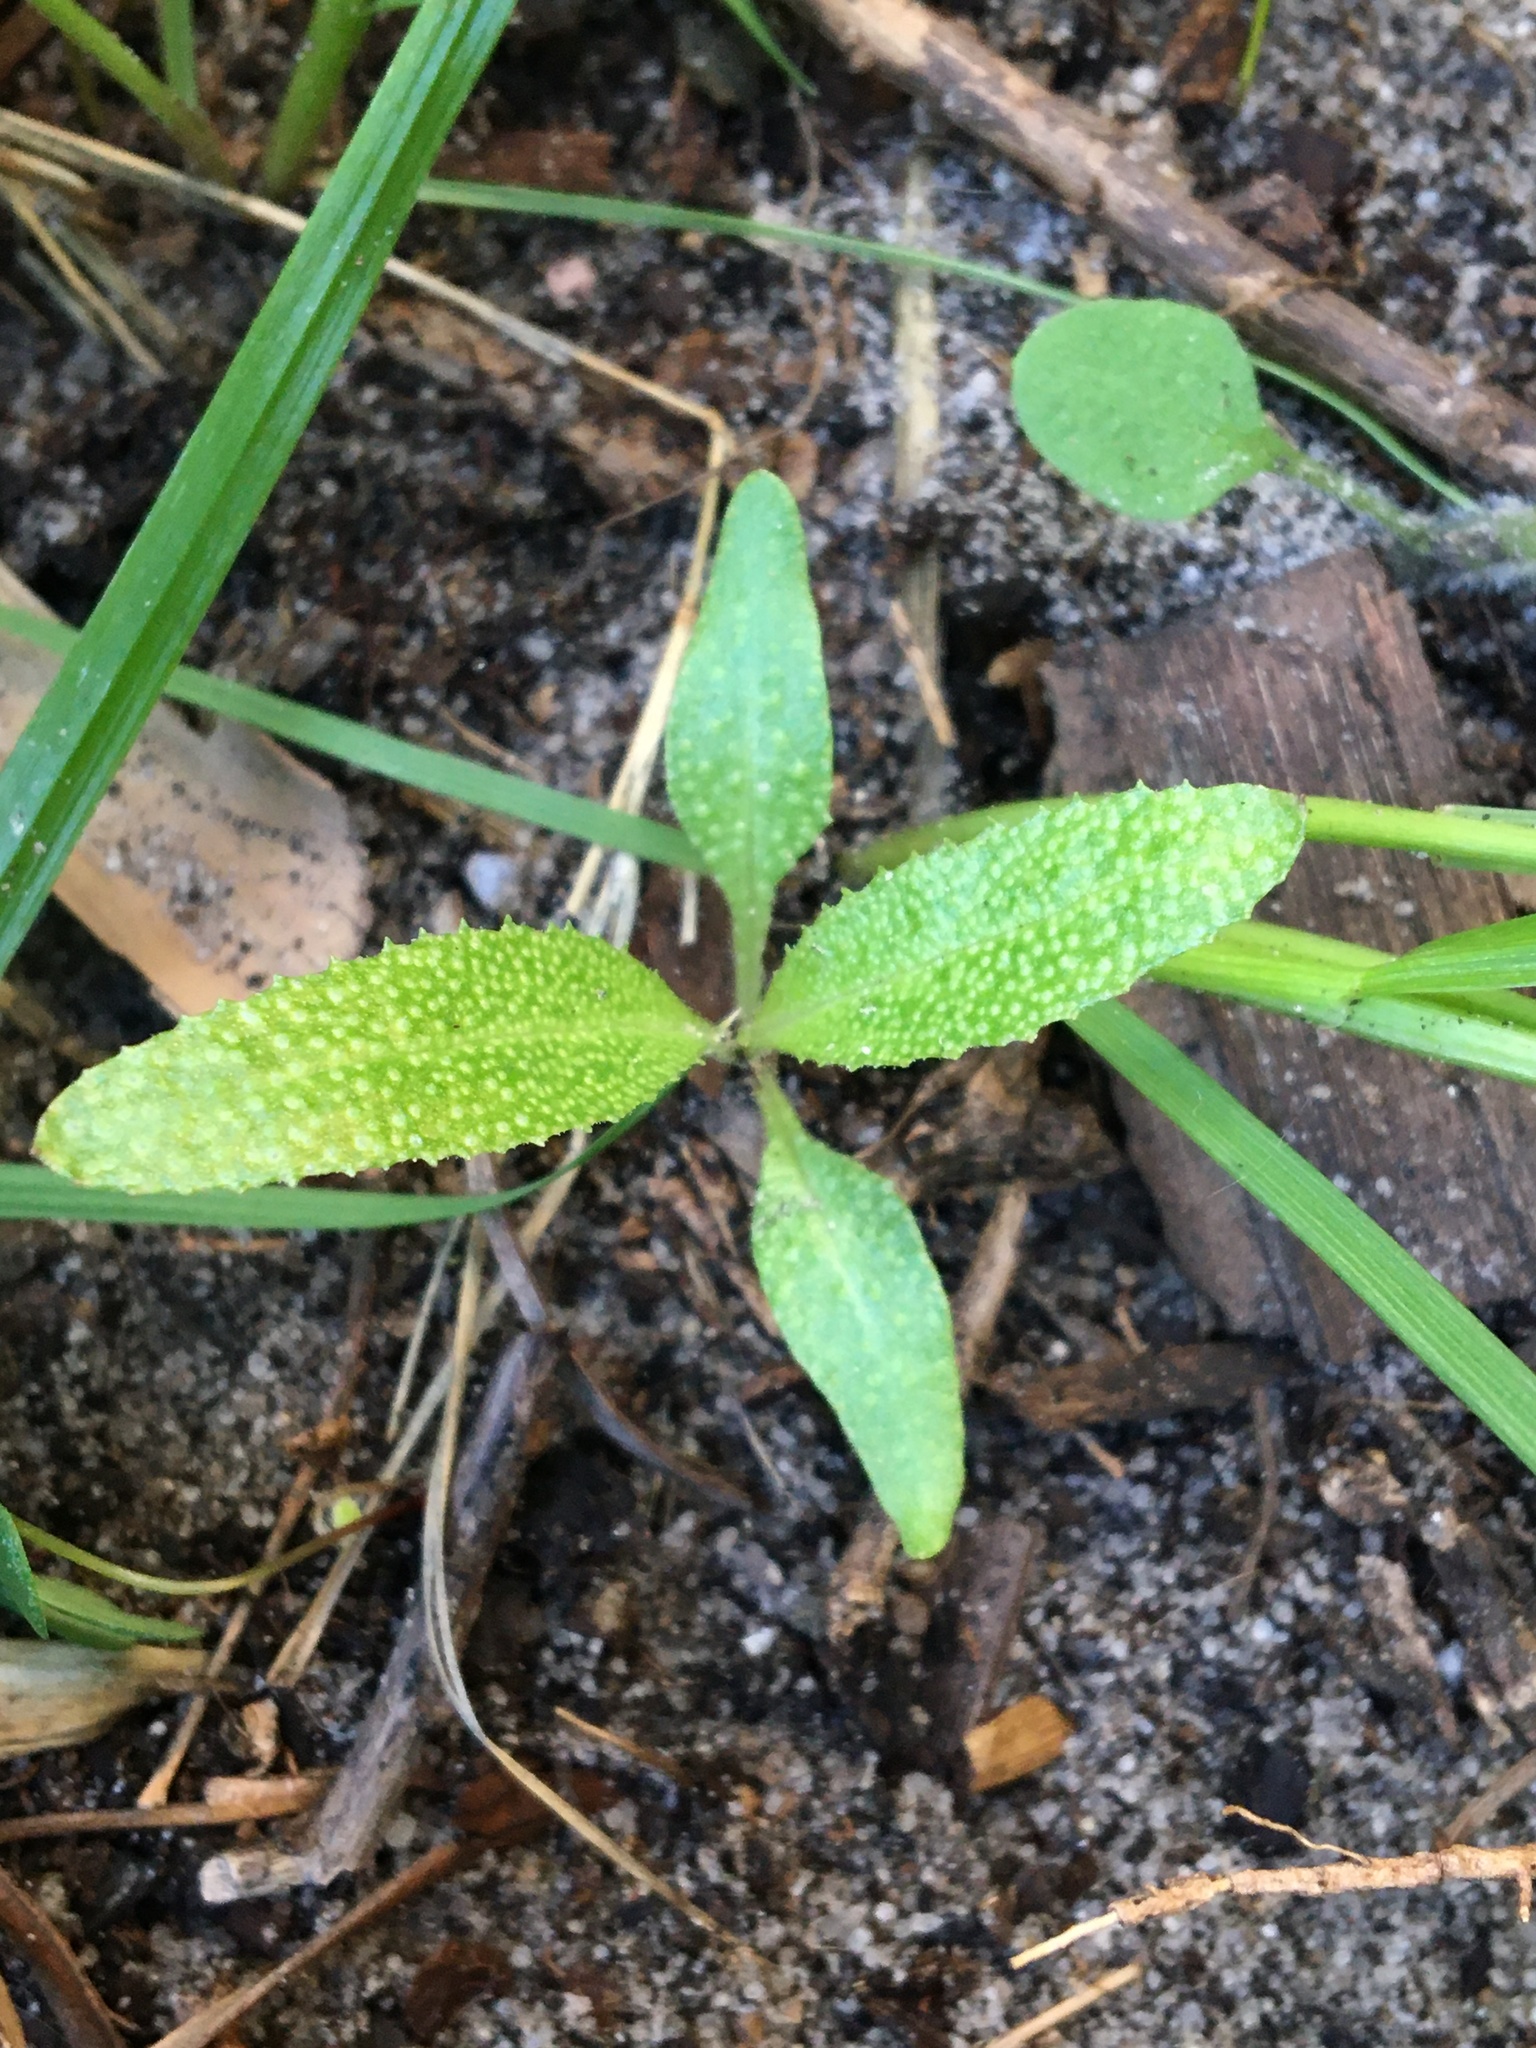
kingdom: Plantae
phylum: Tracheophyta
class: Magnoliopsida
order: Lamiales
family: Scrophulariaceae
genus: Myoporum
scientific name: Myoporum laetum
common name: Ngaio tree
